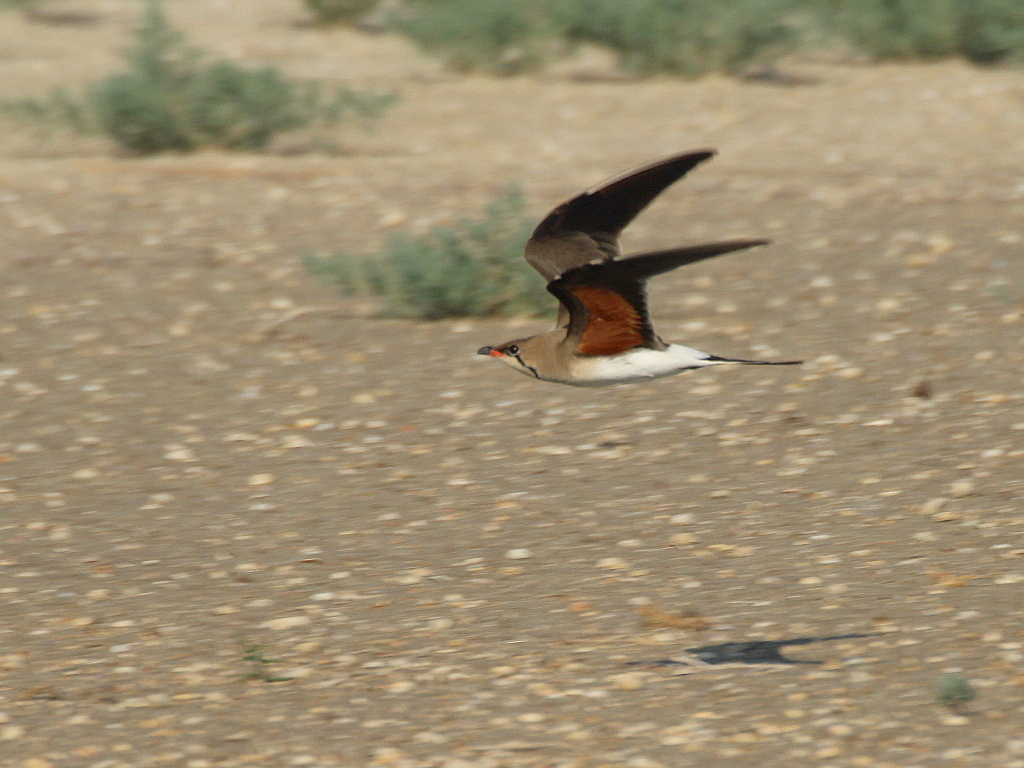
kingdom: Animalia
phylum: Chordata
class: Aves
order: Charadriiformes
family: Glareolidae
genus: Glareola
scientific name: Glareola pratincola
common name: Collared pratincole
